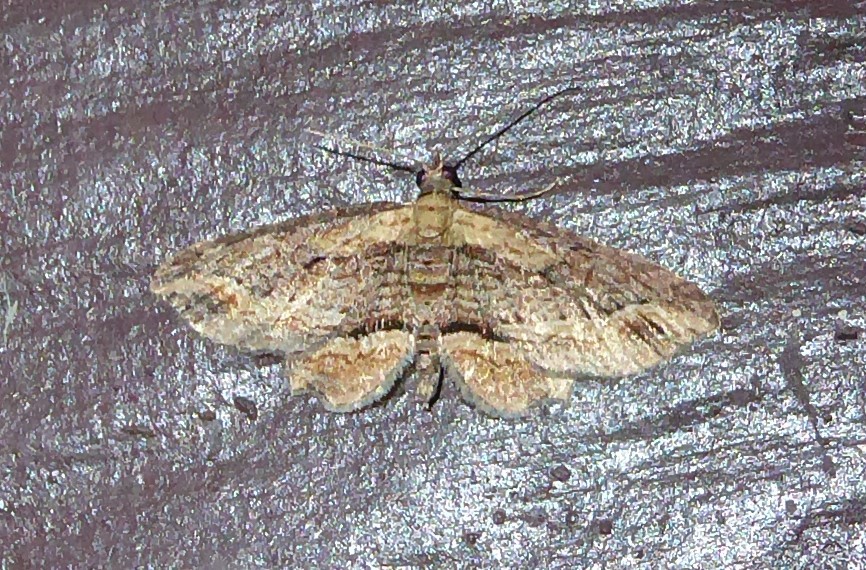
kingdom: Animalia
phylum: Arthropoda
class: Insecta
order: Lepidoptera
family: Geometridae
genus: Chloroclystis
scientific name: Chloroclystis filata
